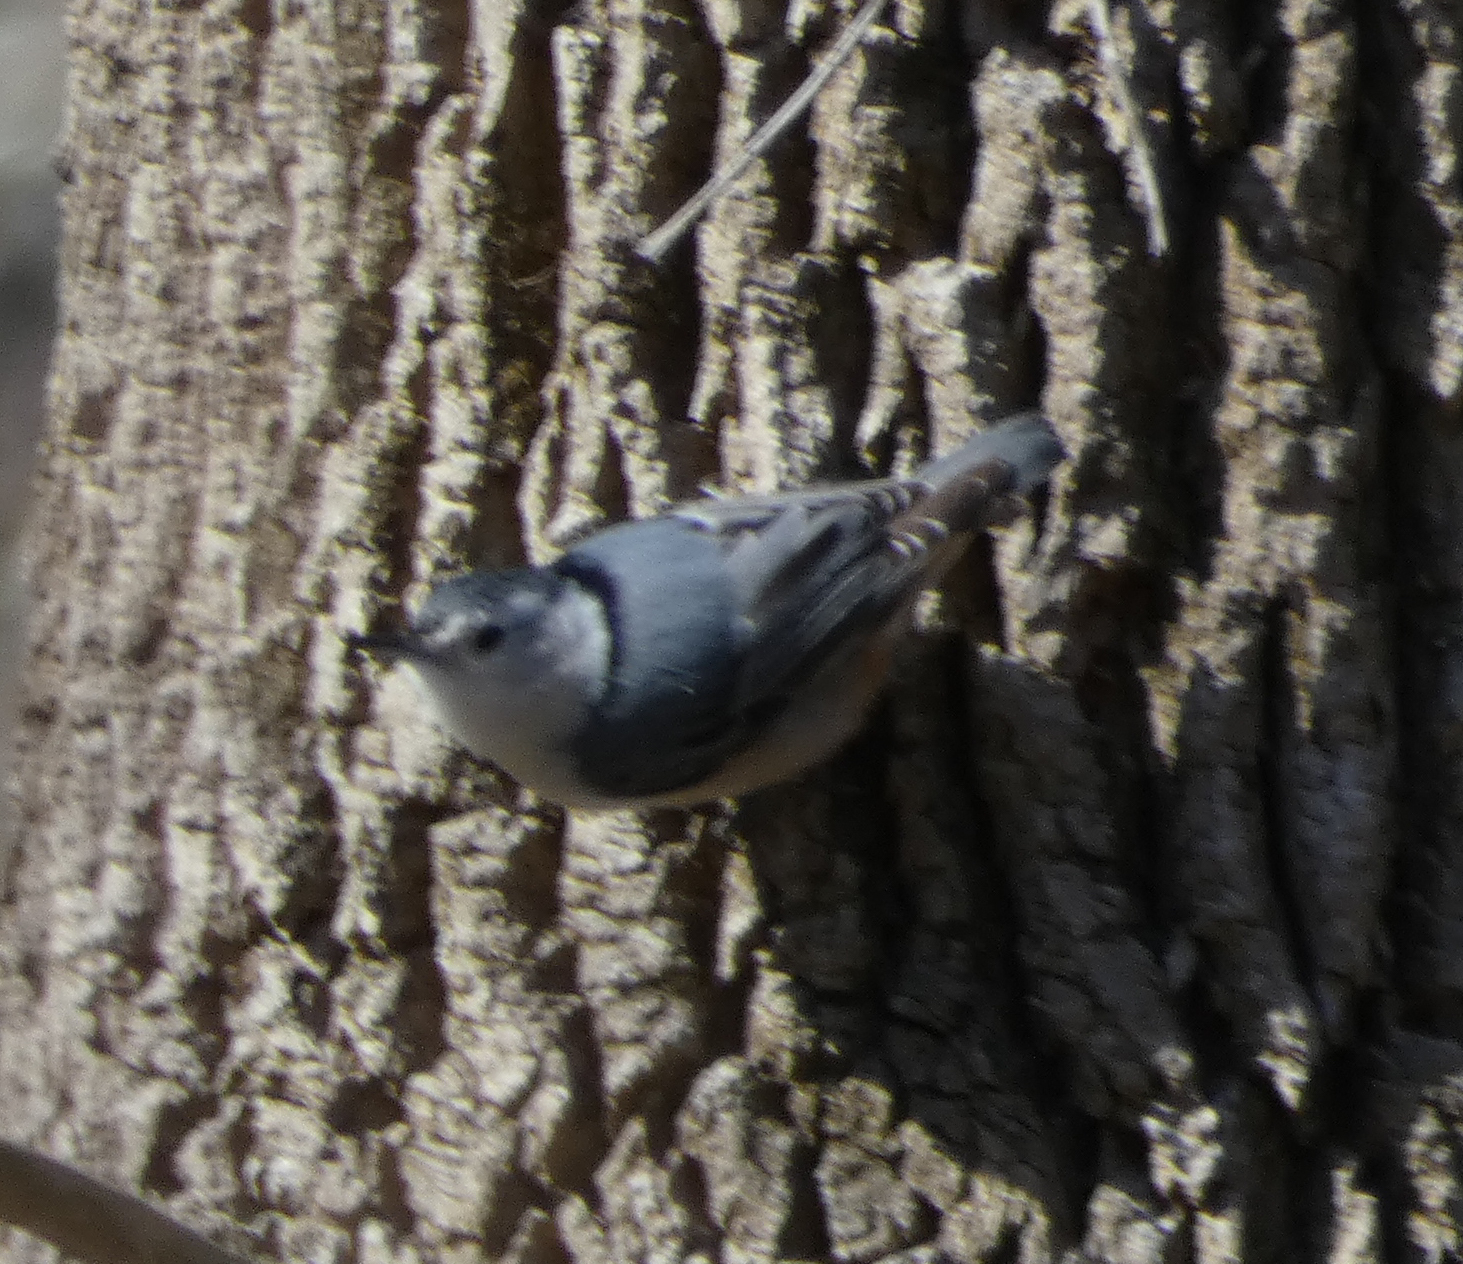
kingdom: Animalia
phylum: Chordata
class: Aves
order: Passeriformes
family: Sittidae
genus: Sitta
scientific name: Sitta carolinensis
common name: White-breasted nuthatch
